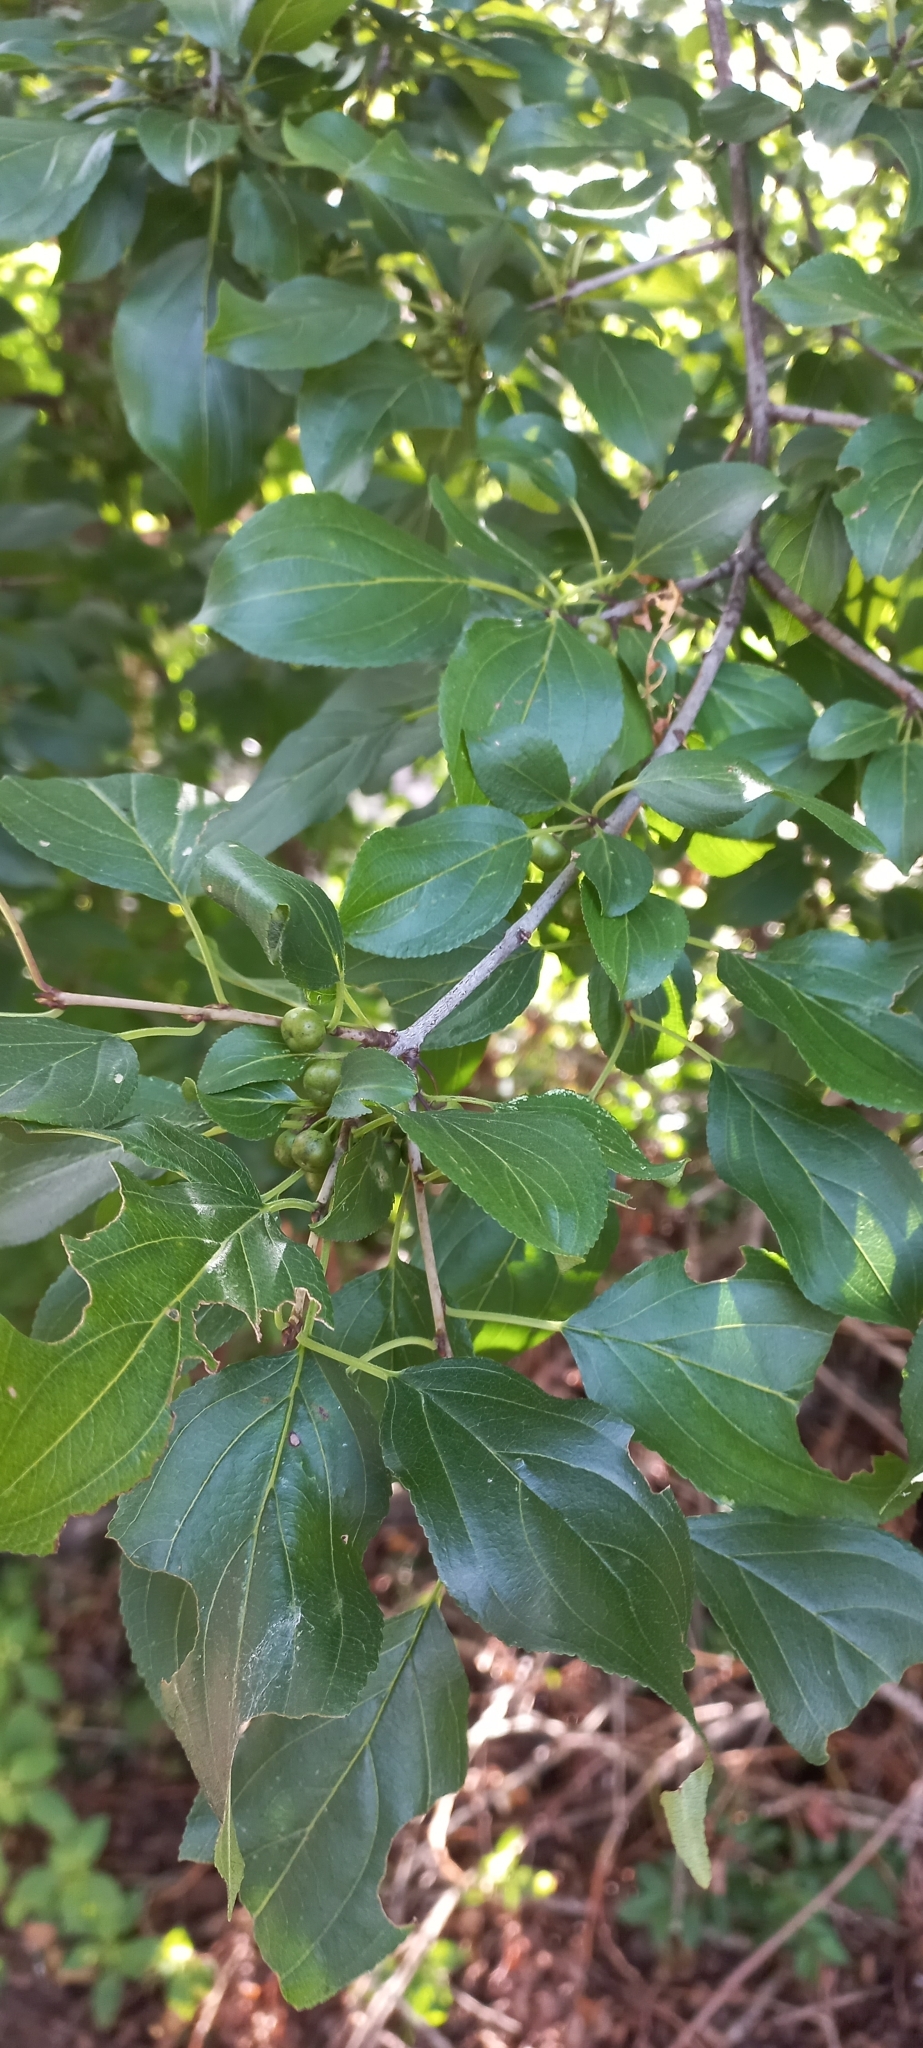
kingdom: Plantae
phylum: Tracheophyta
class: Magnoliopsida
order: Rosales
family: Rhamnaceae
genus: Rhamnus
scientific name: Rhamnus cathartica
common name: Common buckthorn
